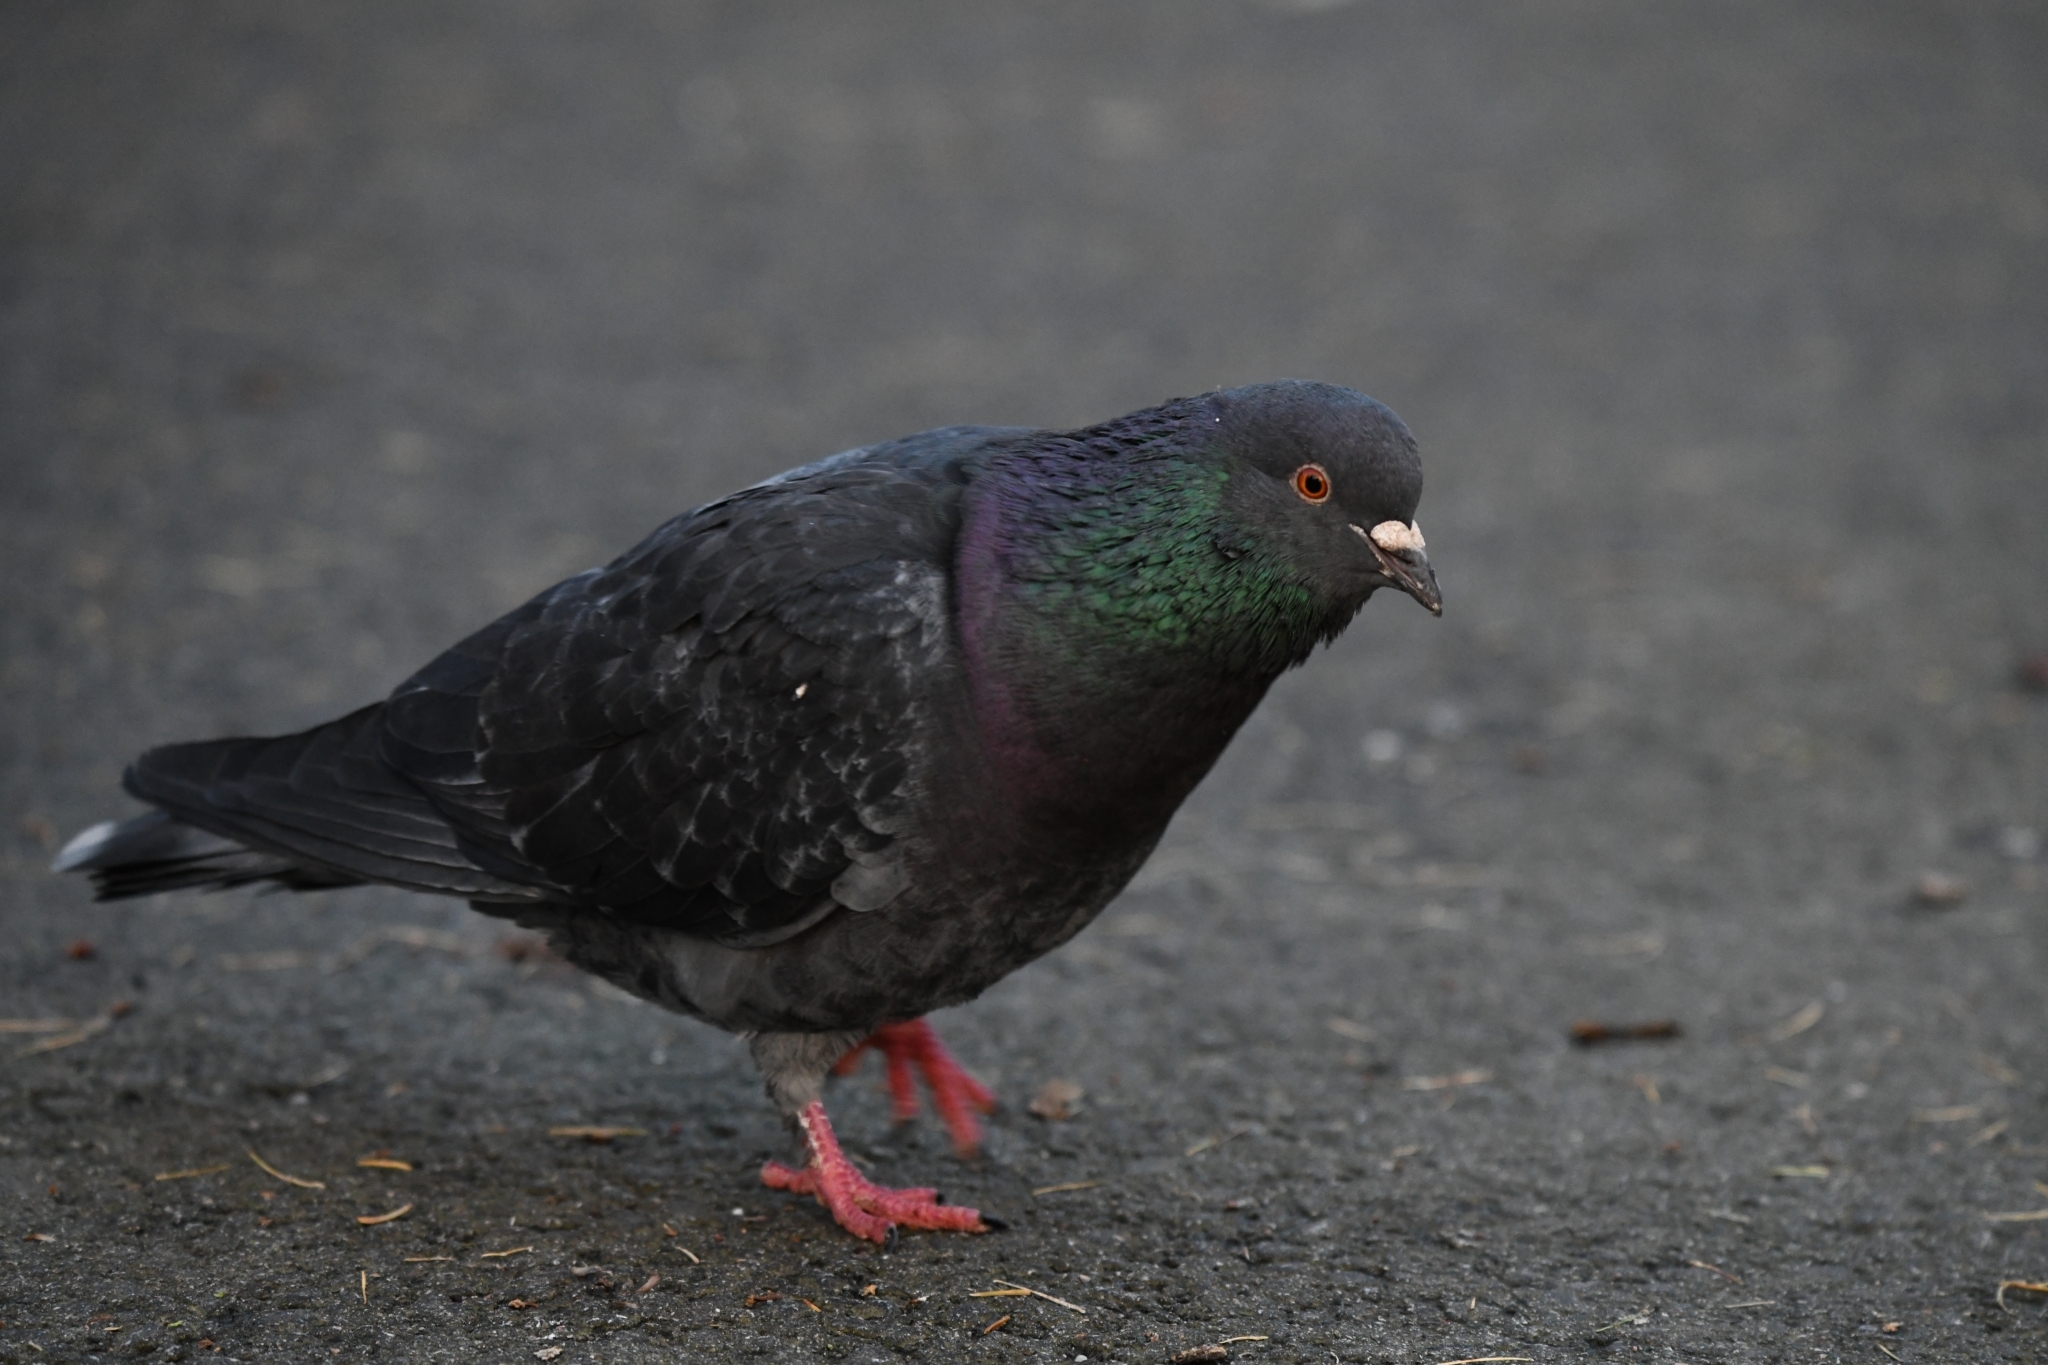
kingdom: Animalia
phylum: Chordata
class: Aves
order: Columbiformes
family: Columbidae
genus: Columba
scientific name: Columba livia
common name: Rock pigeon
